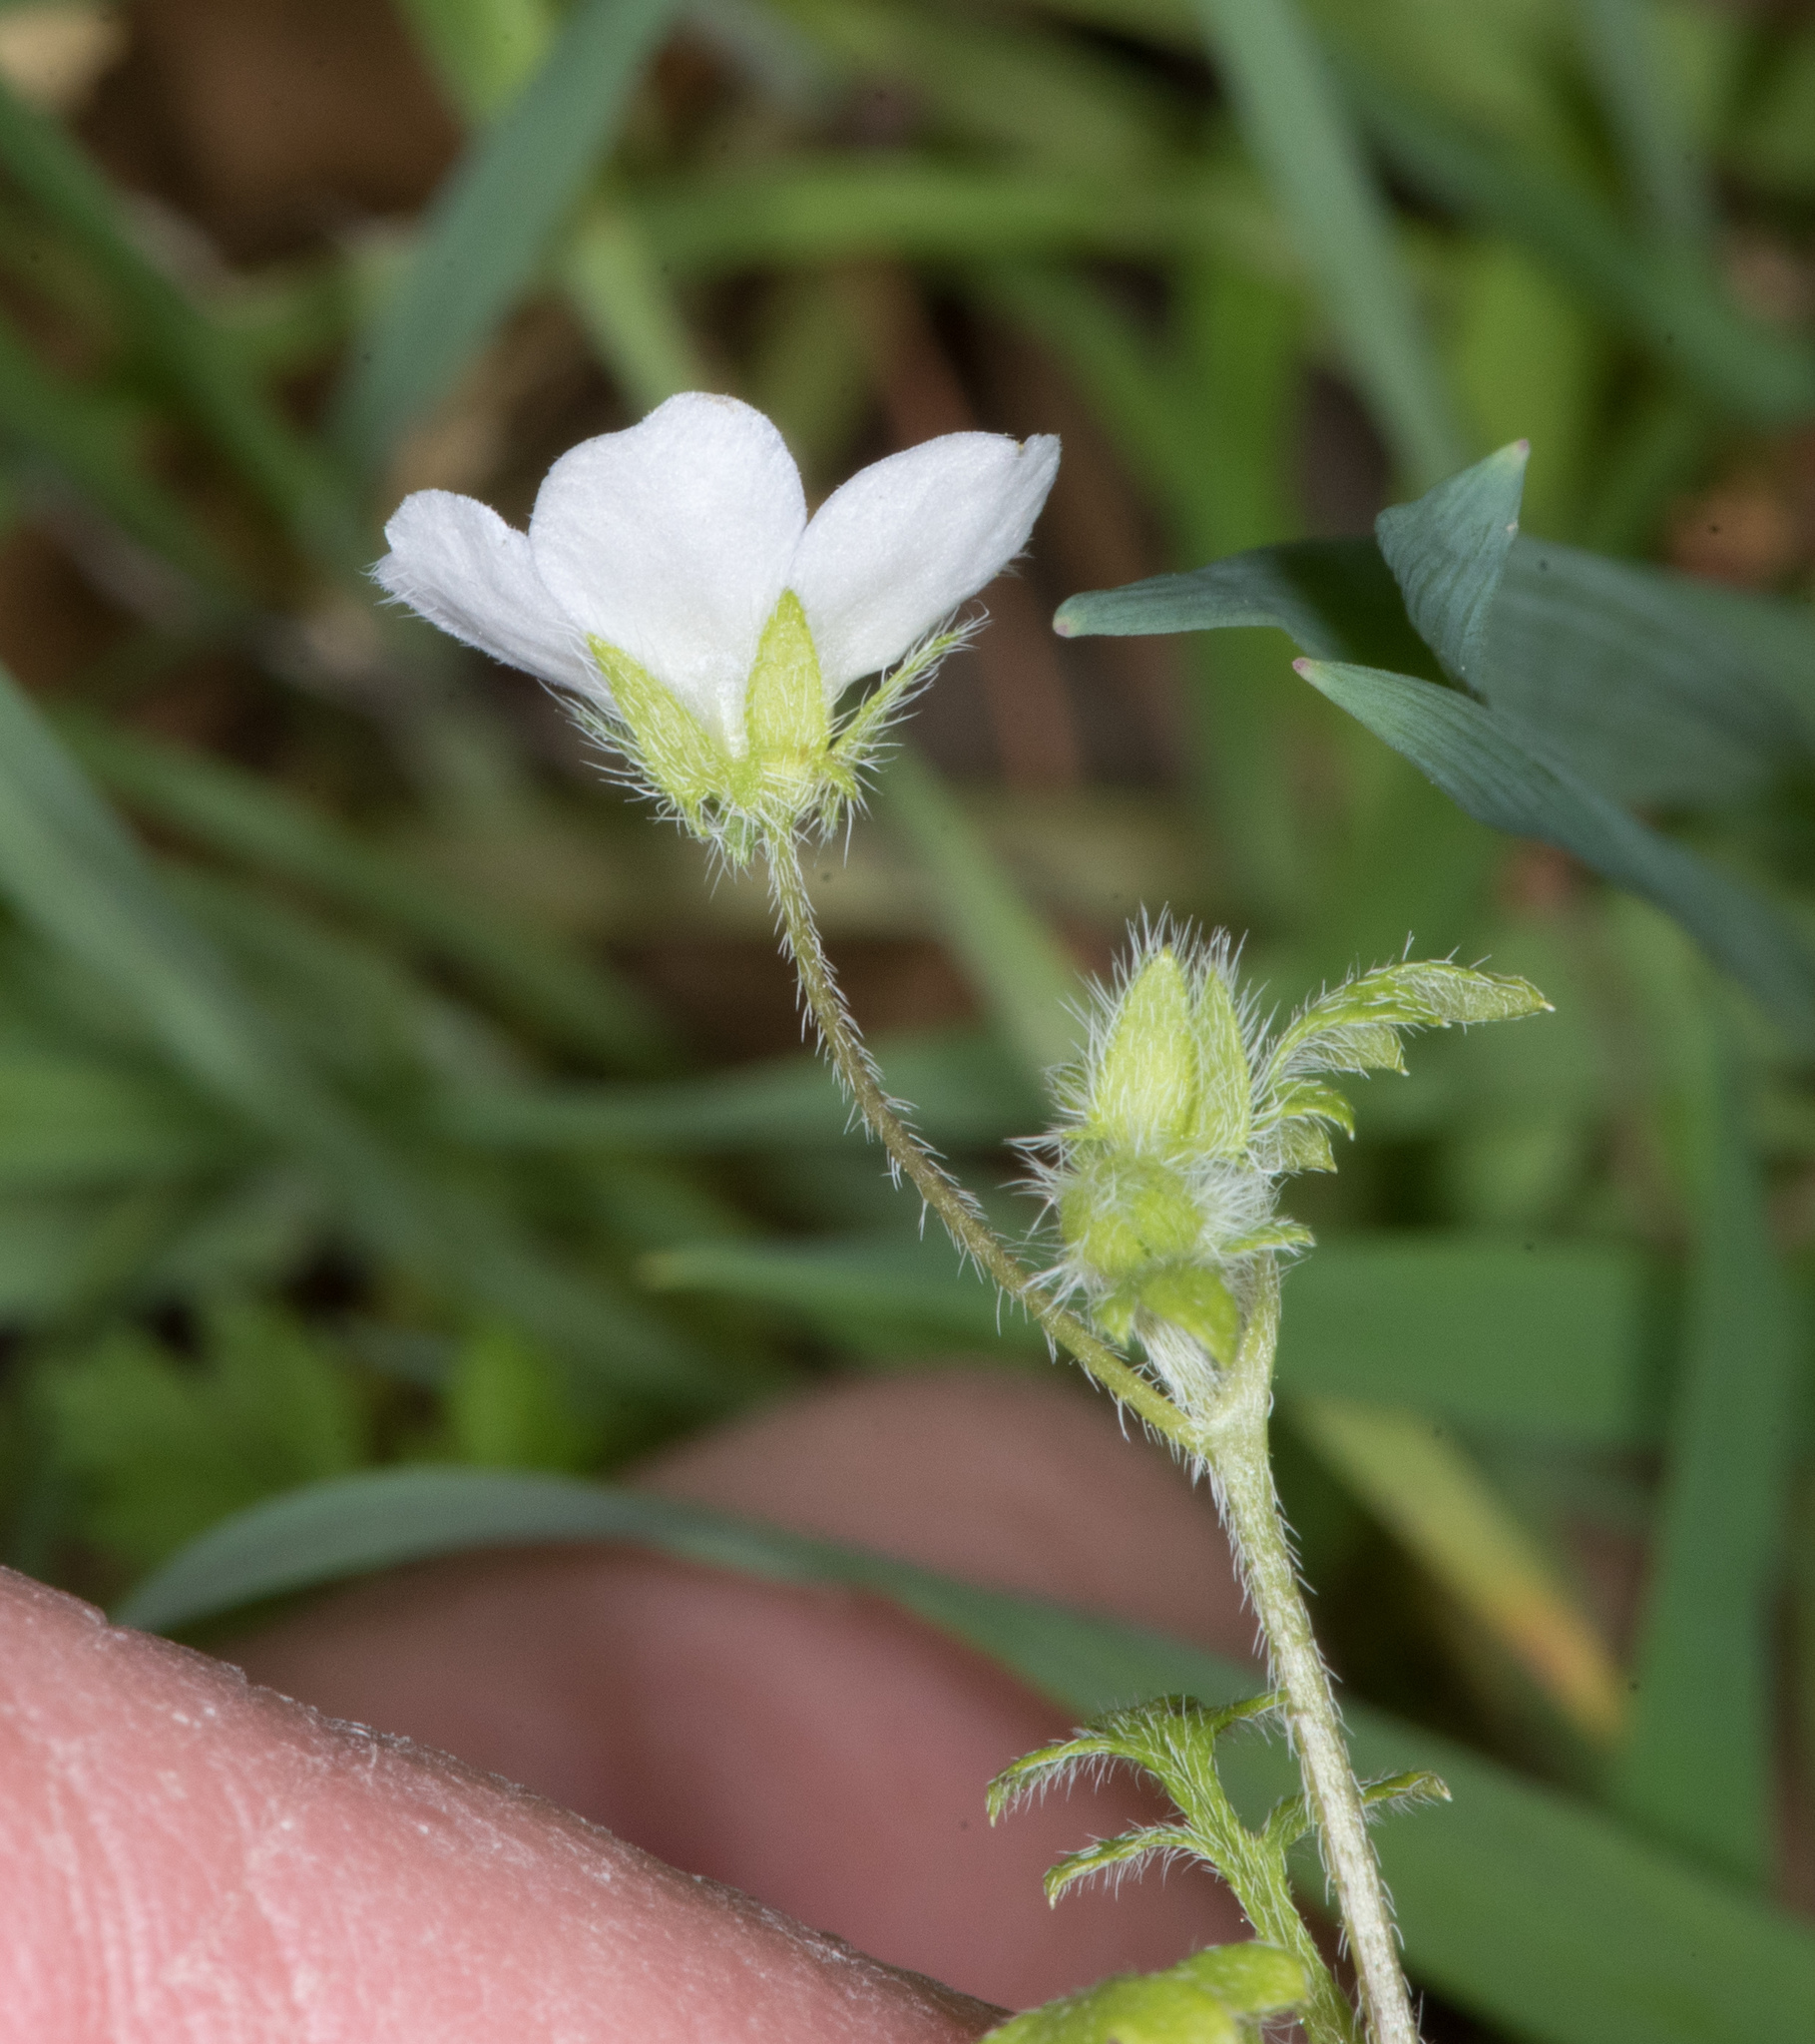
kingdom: Plantae
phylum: Tracheophyta
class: Magnoliopsida
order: Boraginales
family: Hydrophyllaceae
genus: Nemophila
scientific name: Nemophila heterophylla
